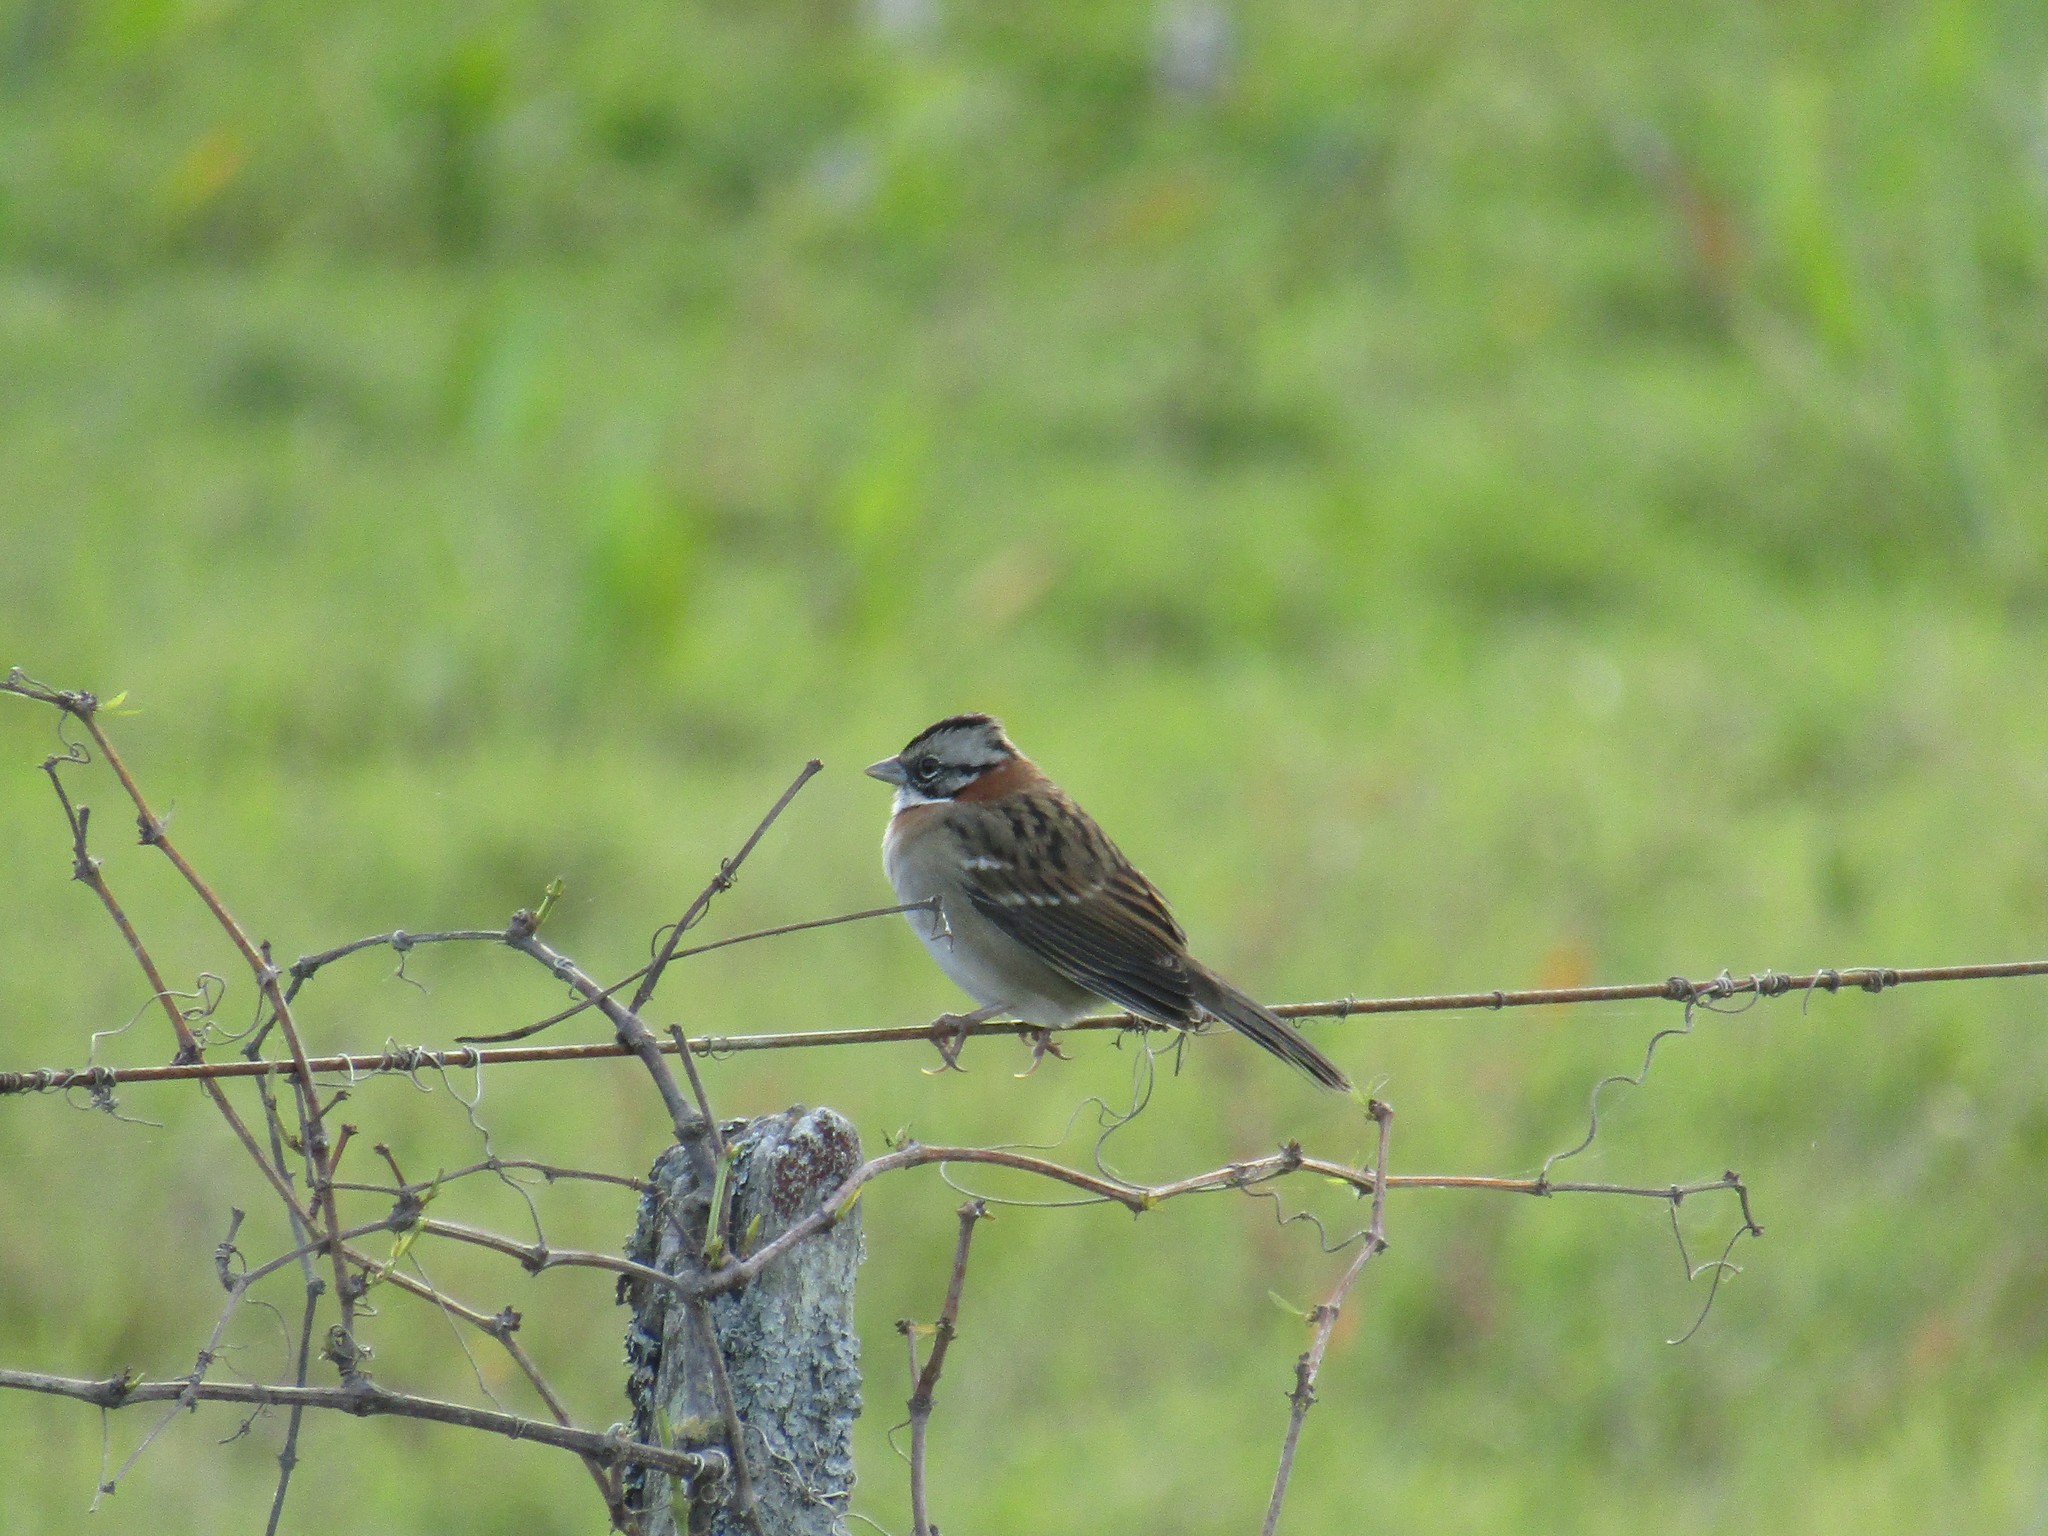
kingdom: Animalia
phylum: Chordata
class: Aves
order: Passeriformes
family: Passerellidae
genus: Zonotrichia
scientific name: Zonotrichia capensis
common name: Rufous-collared sparrow
